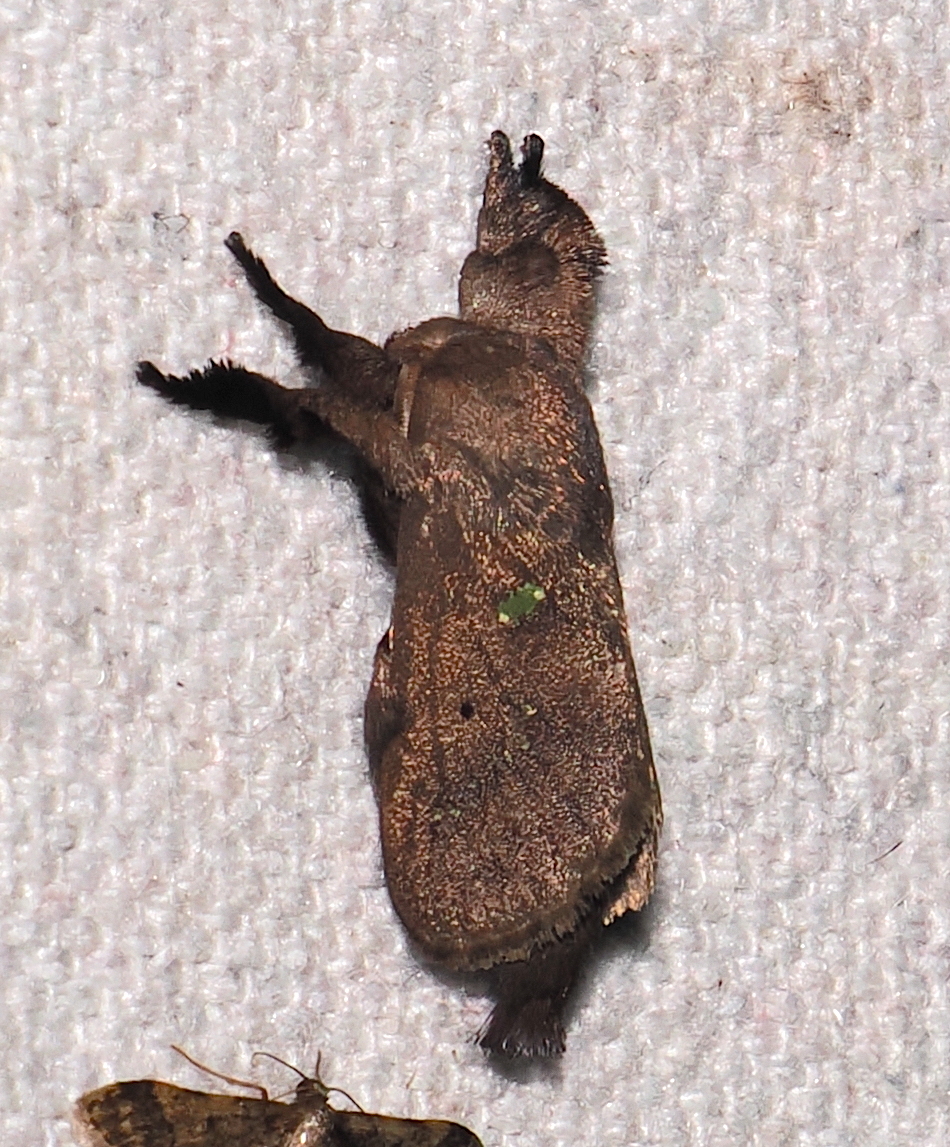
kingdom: Animalia
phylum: Arthropoda
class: Insecta
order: Lepidoptera
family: Limacodidae
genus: Euclea
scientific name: Euclea norba
